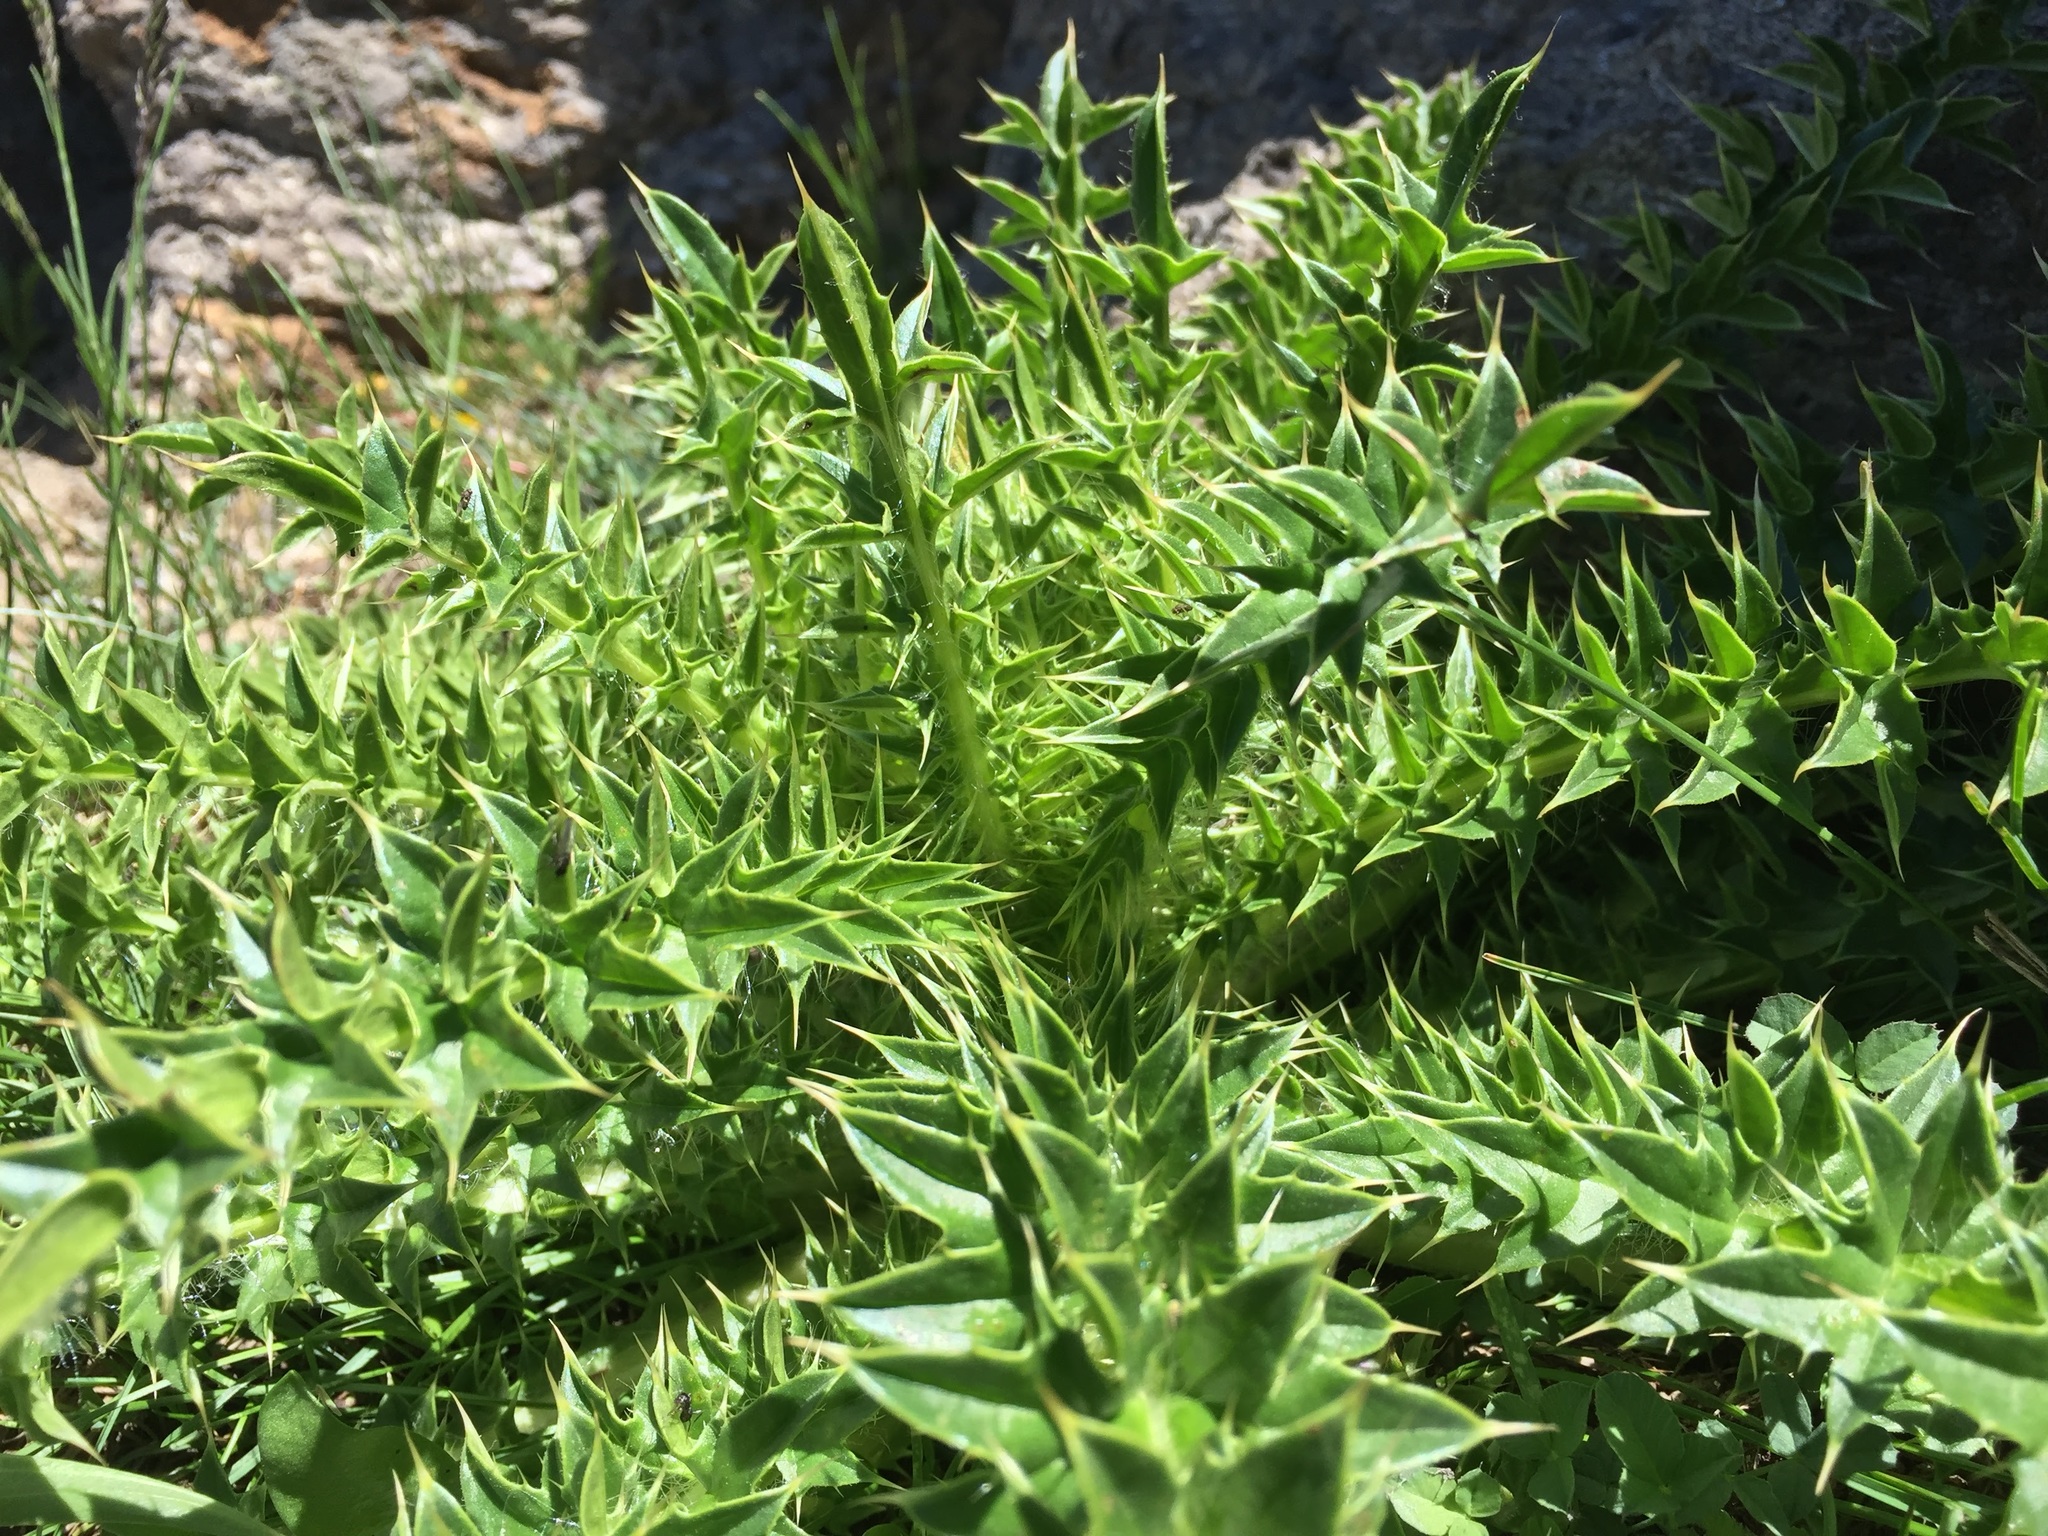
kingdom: Plantae
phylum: Tracheophyta
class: Magnoliopsida
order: Asterales
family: Asteraceae
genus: Cirsium
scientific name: Cirsium peckii
